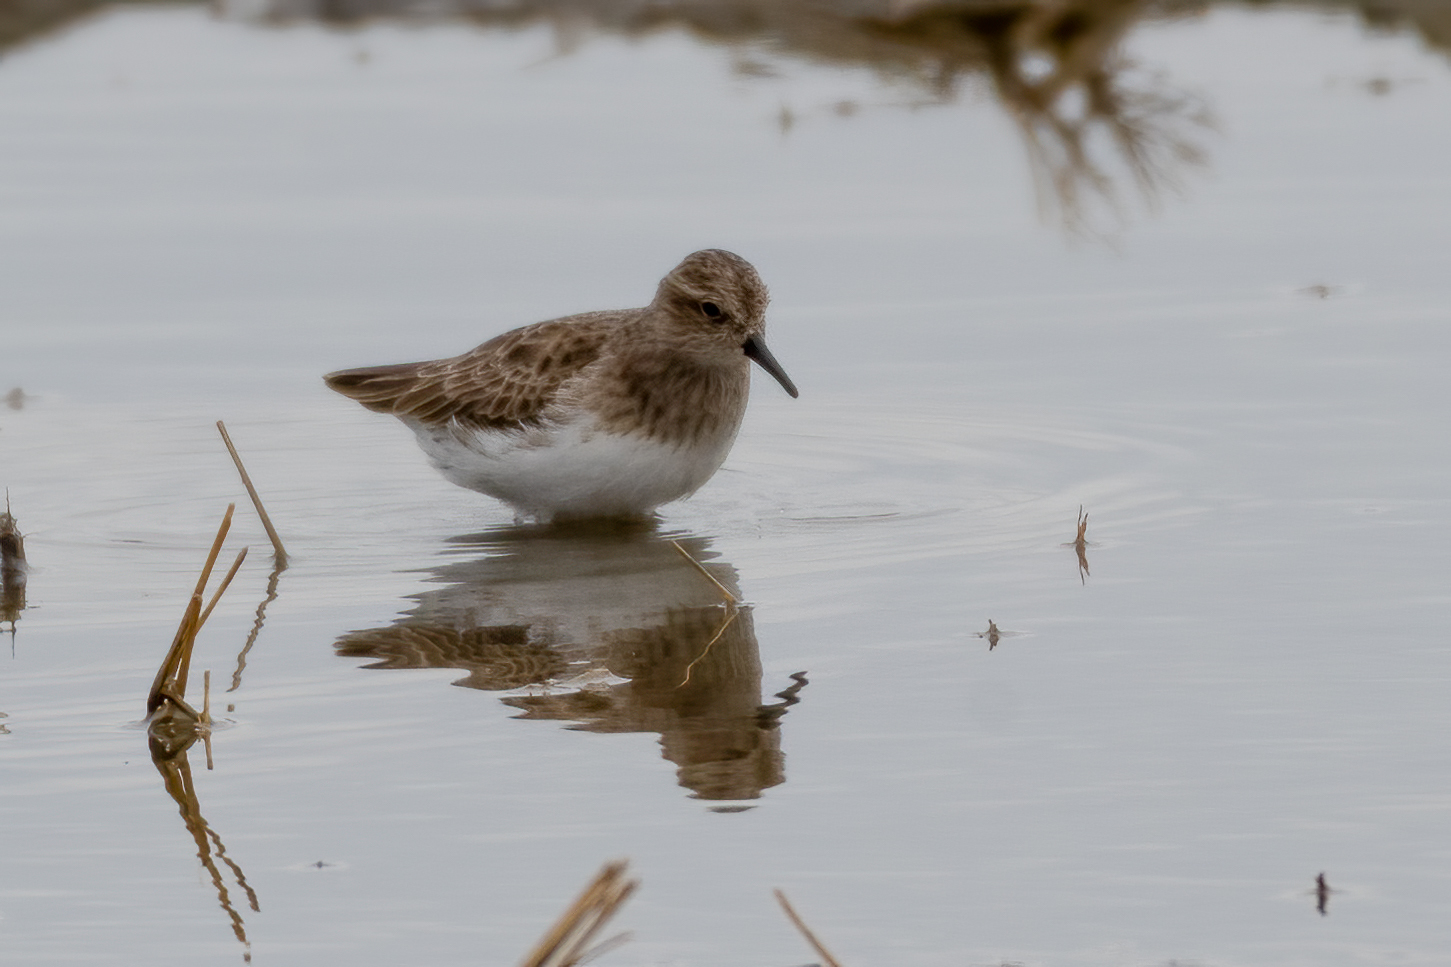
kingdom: Animalia
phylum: Chordata
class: Aves
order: Charadriiformes
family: Scolopacidae
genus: Calidris
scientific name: Calidris minutilla
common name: Least sandpiper
